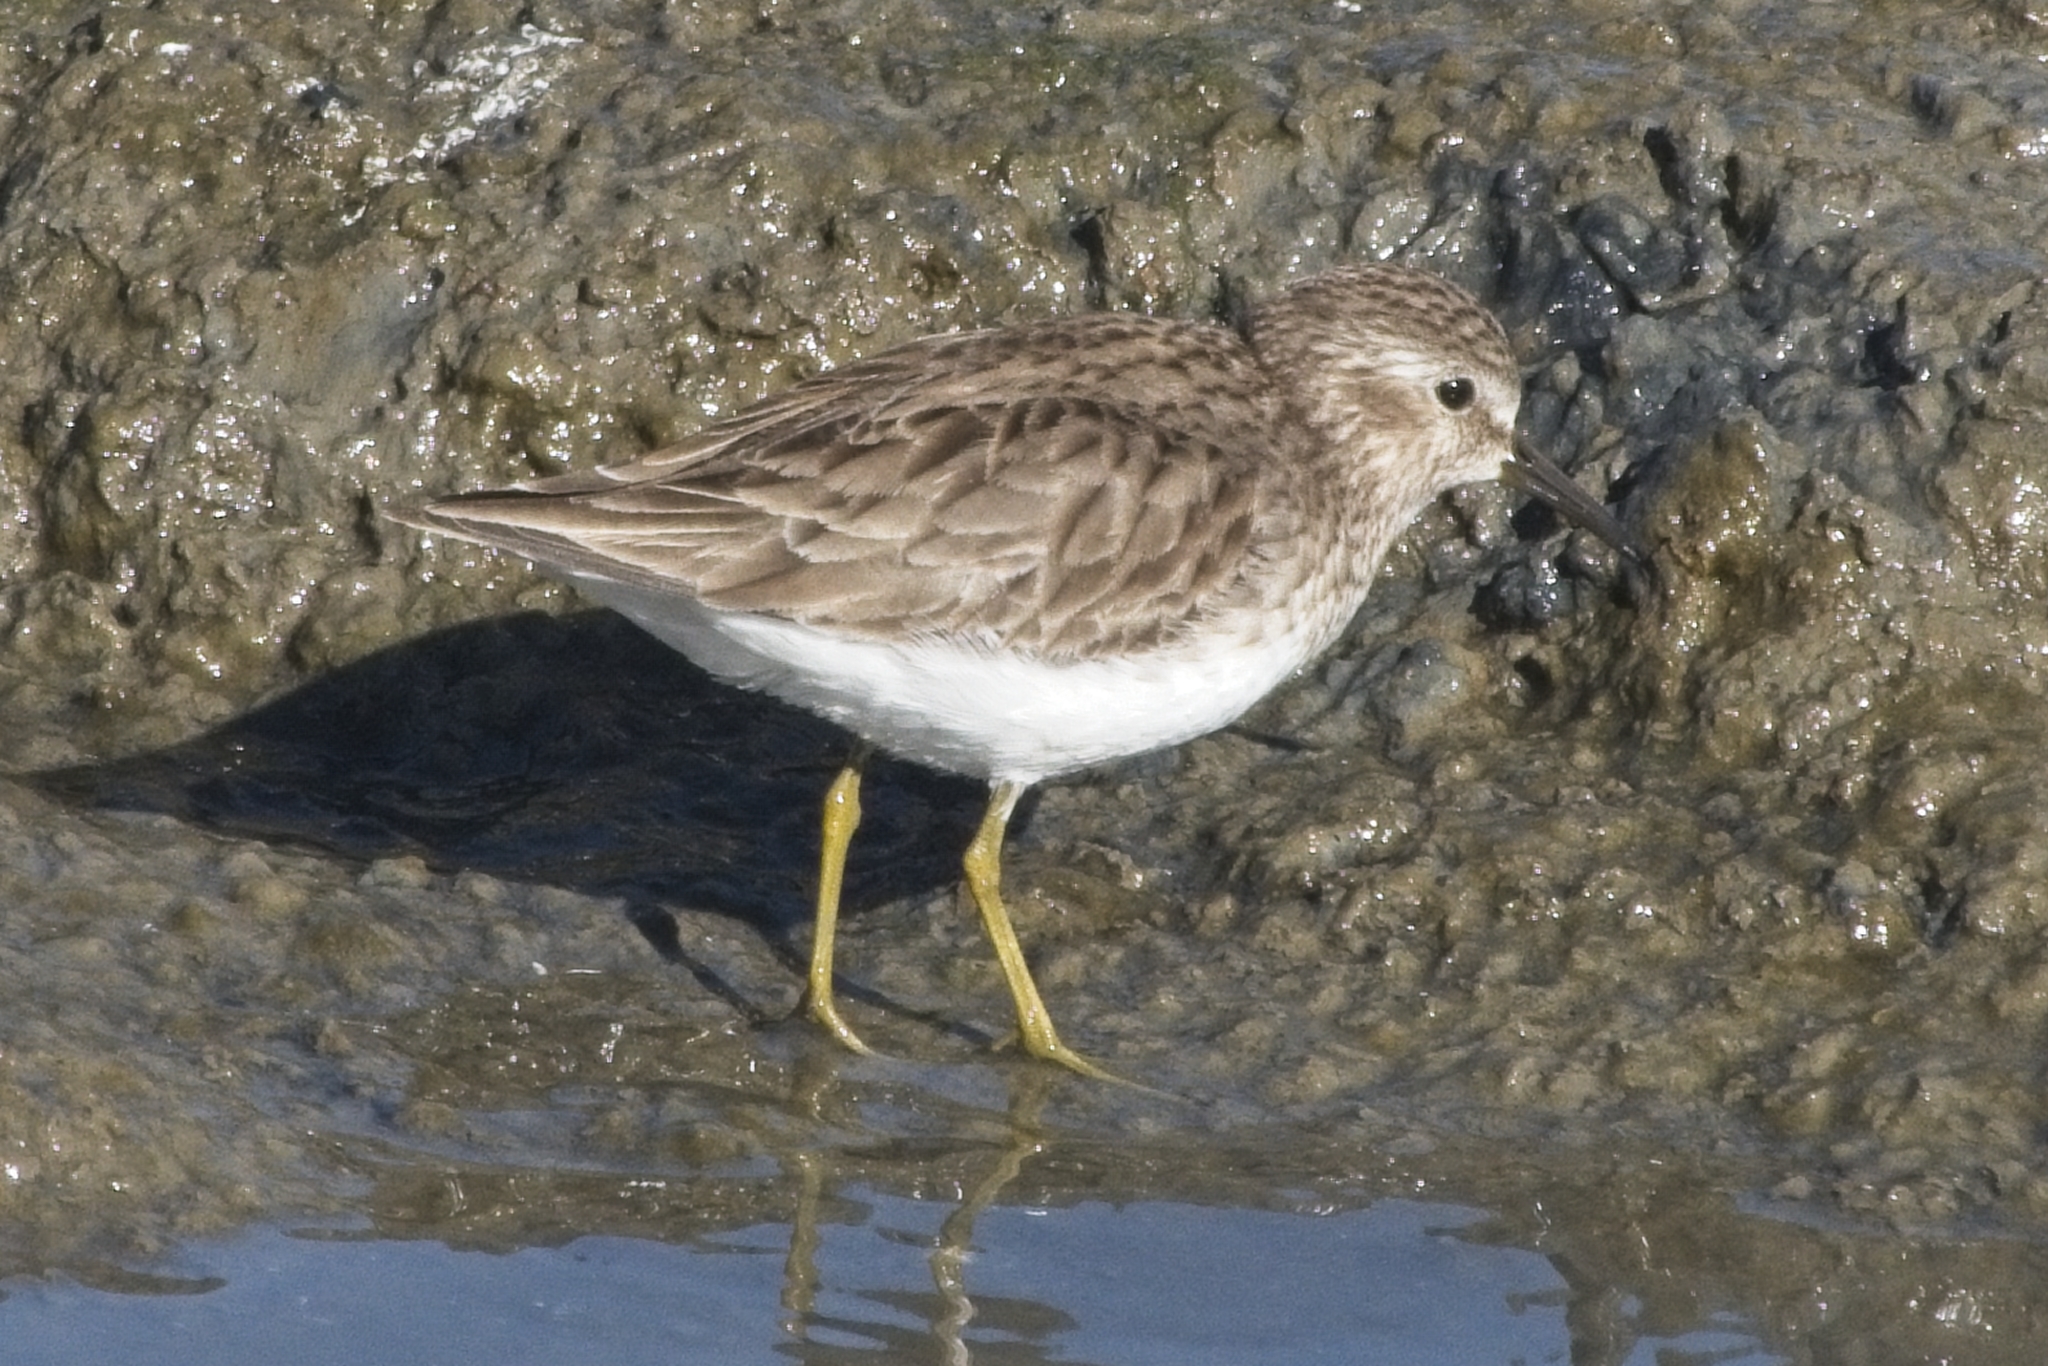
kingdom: Animalia
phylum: Chordata
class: Aves
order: Charadriiformes
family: Scolopacidae
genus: Calidris
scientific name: Calidris minutilla
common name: Least sandpiper
